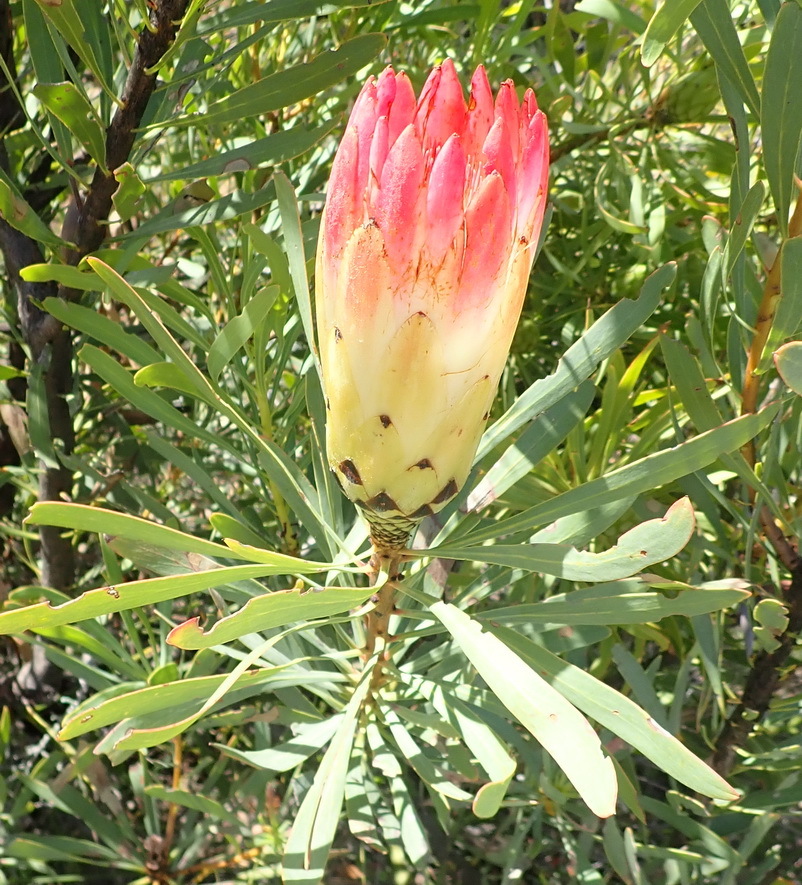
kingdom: Plantae
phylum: Tracheophyta
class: Magnoliopsida
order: Proteales
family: Proteaceae
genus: Protea
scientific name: Protea repens
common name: Sugarbush
